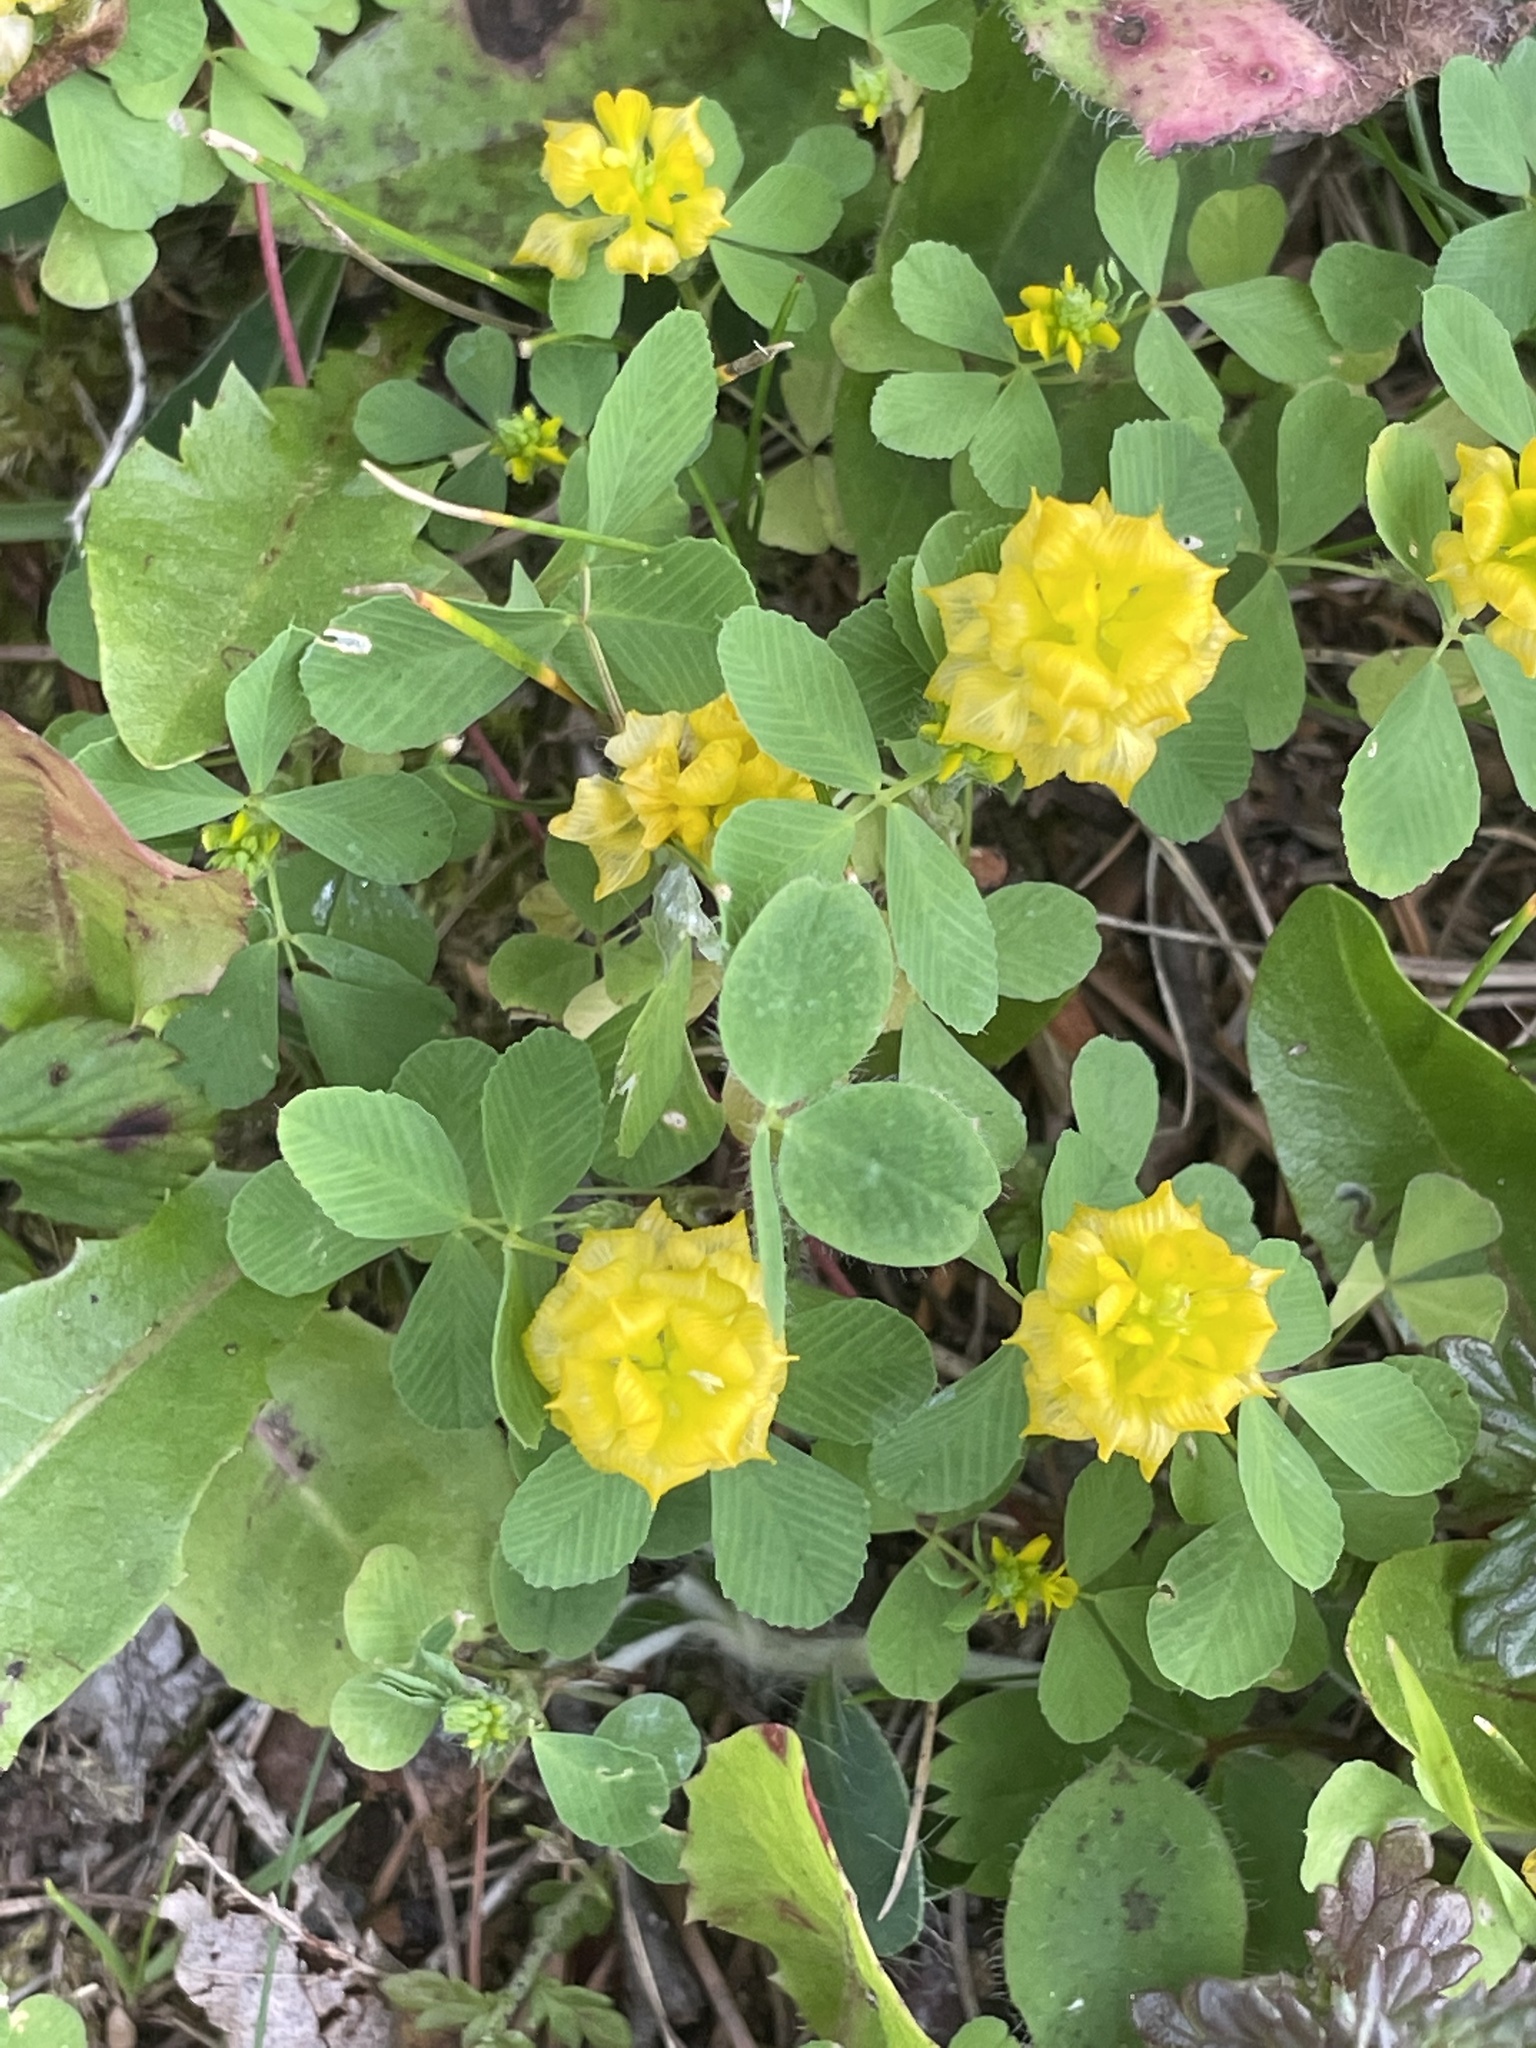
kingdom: Plantae
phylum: Tracheophyta
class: Magnoliopsida
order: Fabales
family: Fabaceae
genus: Trifolium
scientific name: Trifolium campestre
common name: Field clover
